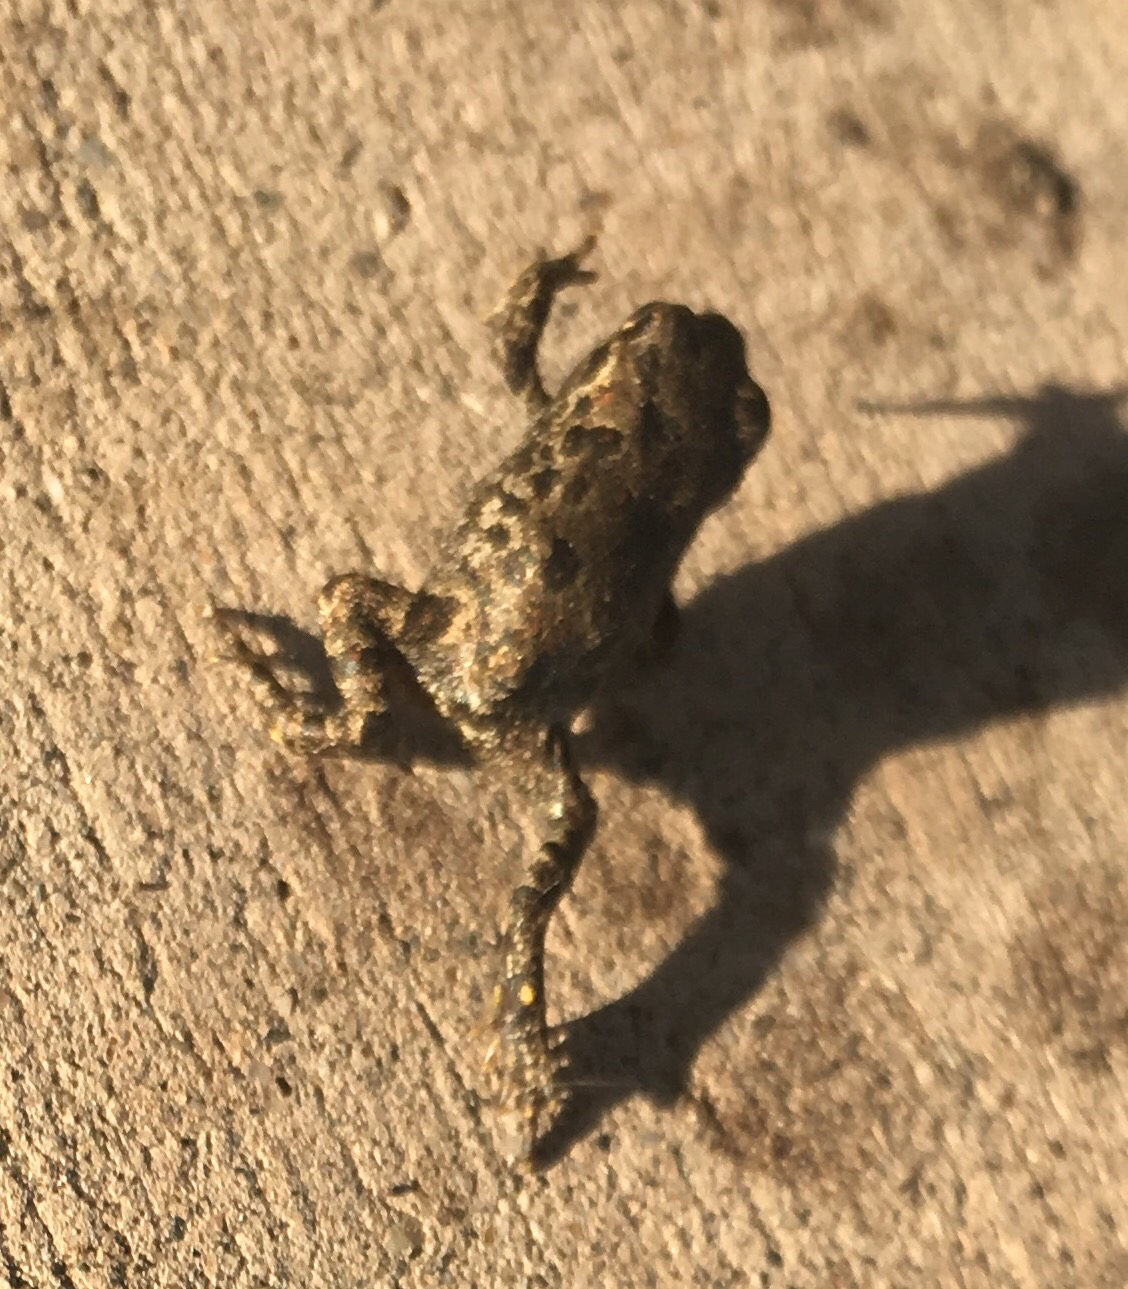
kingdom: Animalia
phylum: Chordata
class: Amphibia
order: Anura
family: Bufonidae
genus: Anaxyrus
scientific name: Anaxyrus boreas
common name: Western toad
